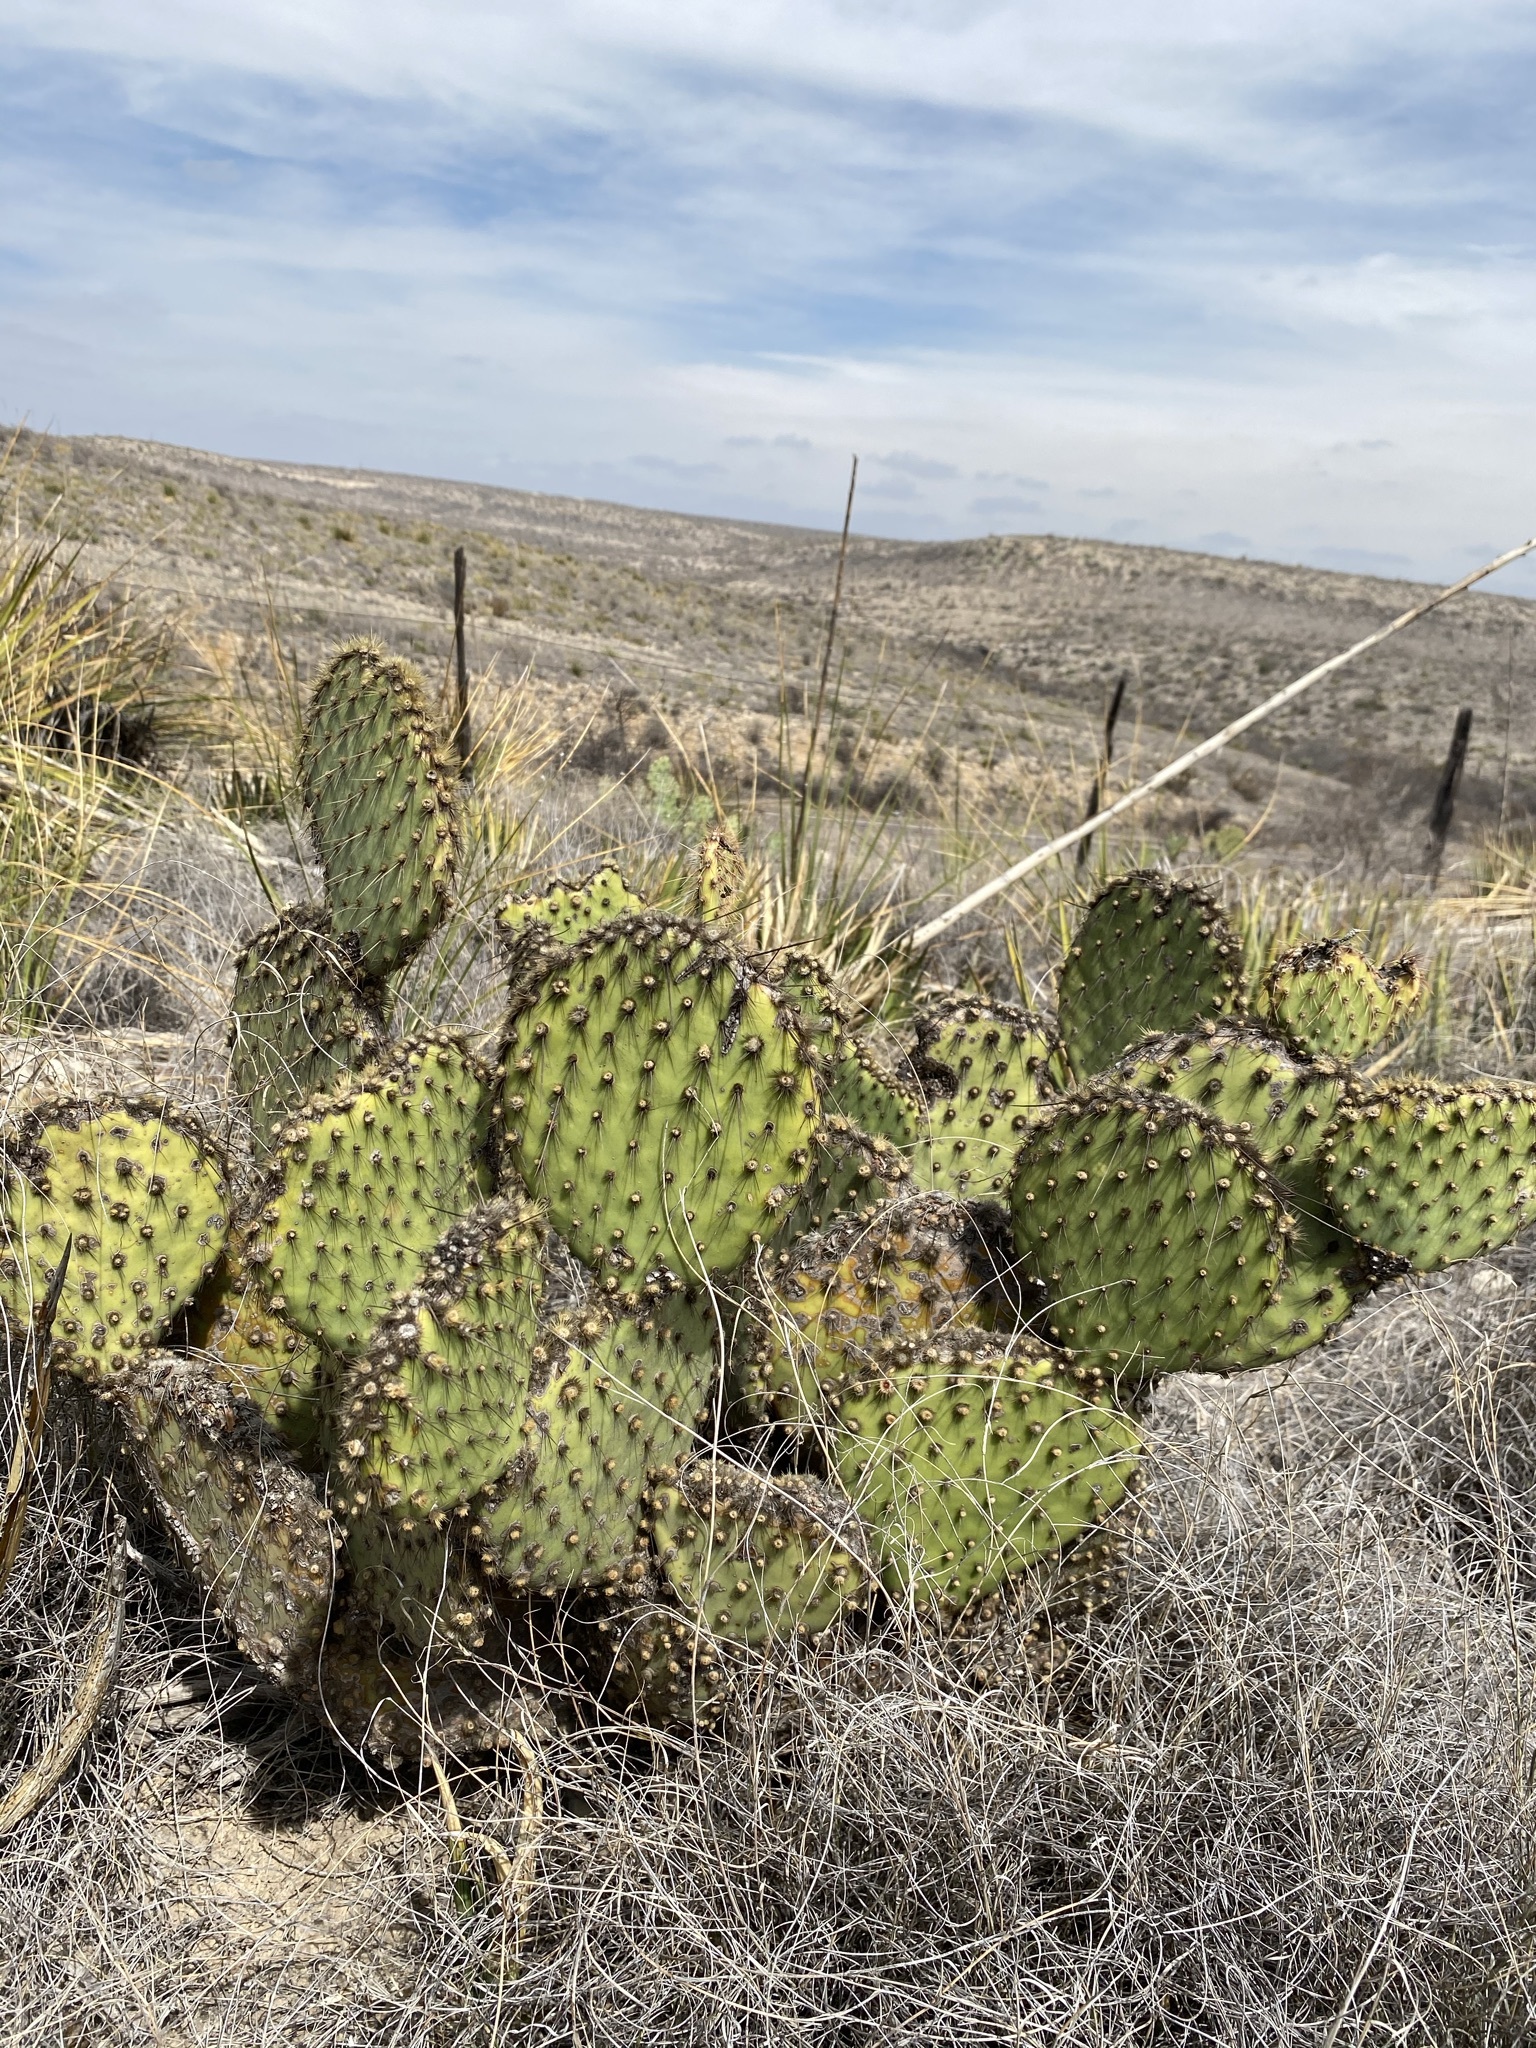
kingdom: Plantae
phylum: Tracheophyta
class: Magnoliopsida
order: Caryophyllales
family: Cactaceae
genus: Opuntia
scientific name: Opuntia strigil
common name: Marble-fruit prickly-pear
